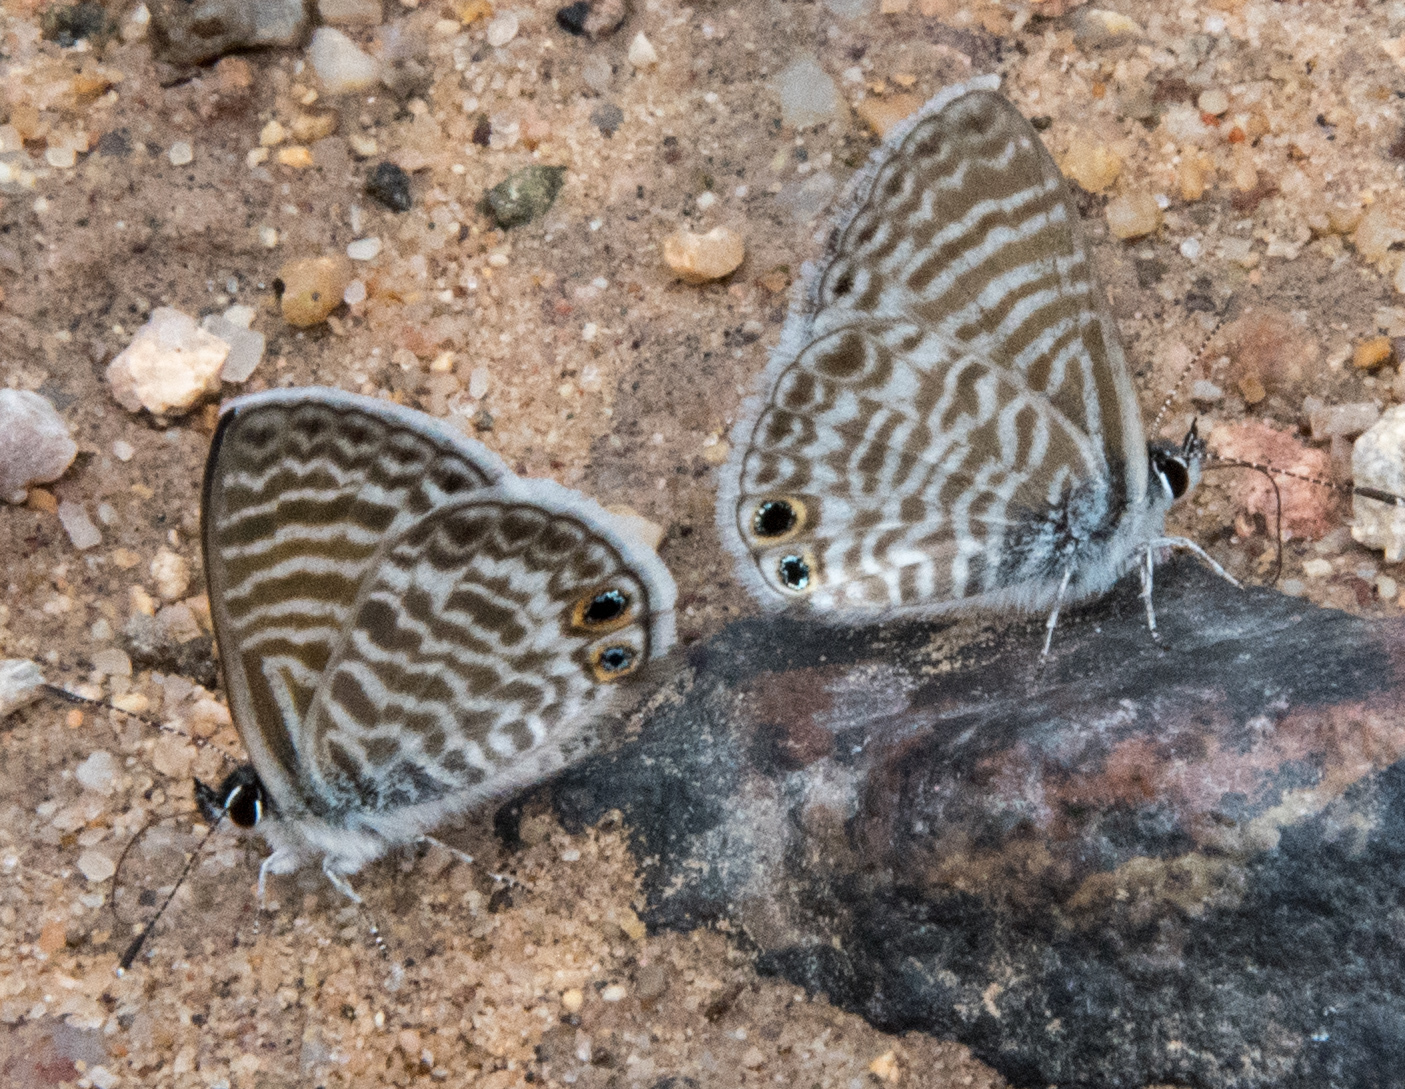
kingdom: Animalia
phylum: Arthropoda
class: Insecta
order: Lepidoptera
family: Lycaenidae
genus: Leptotes
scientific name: Leptotes marina
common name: Marine blue
